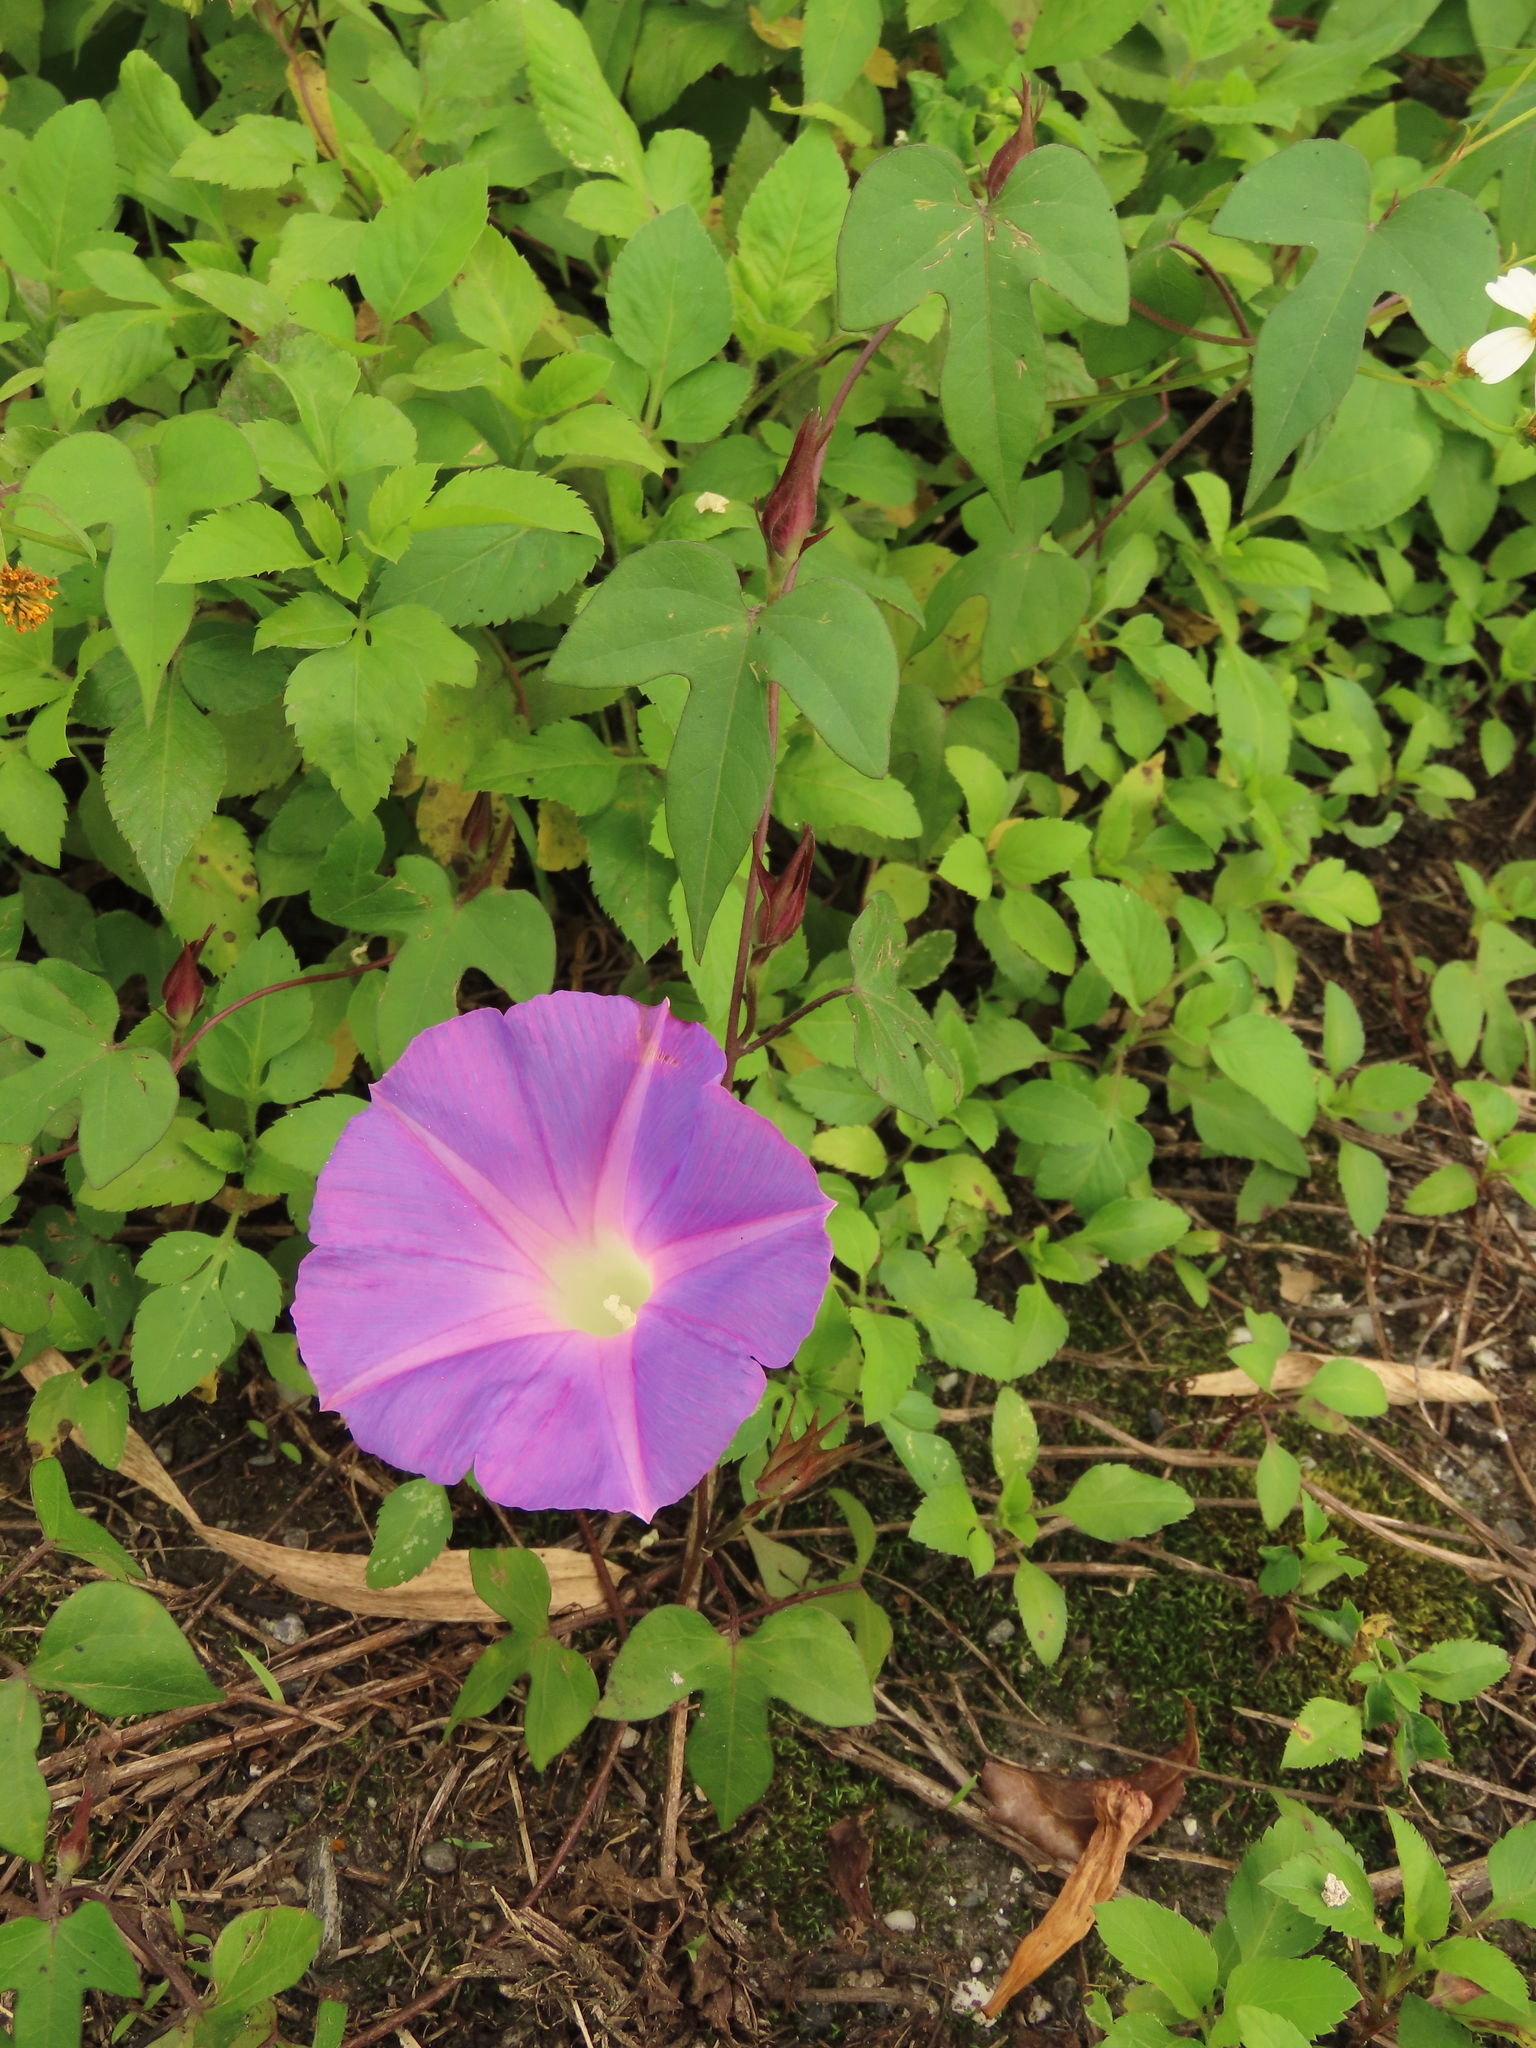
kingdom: Plantae
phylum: Tracheophyta
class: Magnoliopsida
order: Solanales
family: Convolvulaceae
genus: Ipomoea
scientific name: Ipomoea indica
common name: Blue dawnflower
